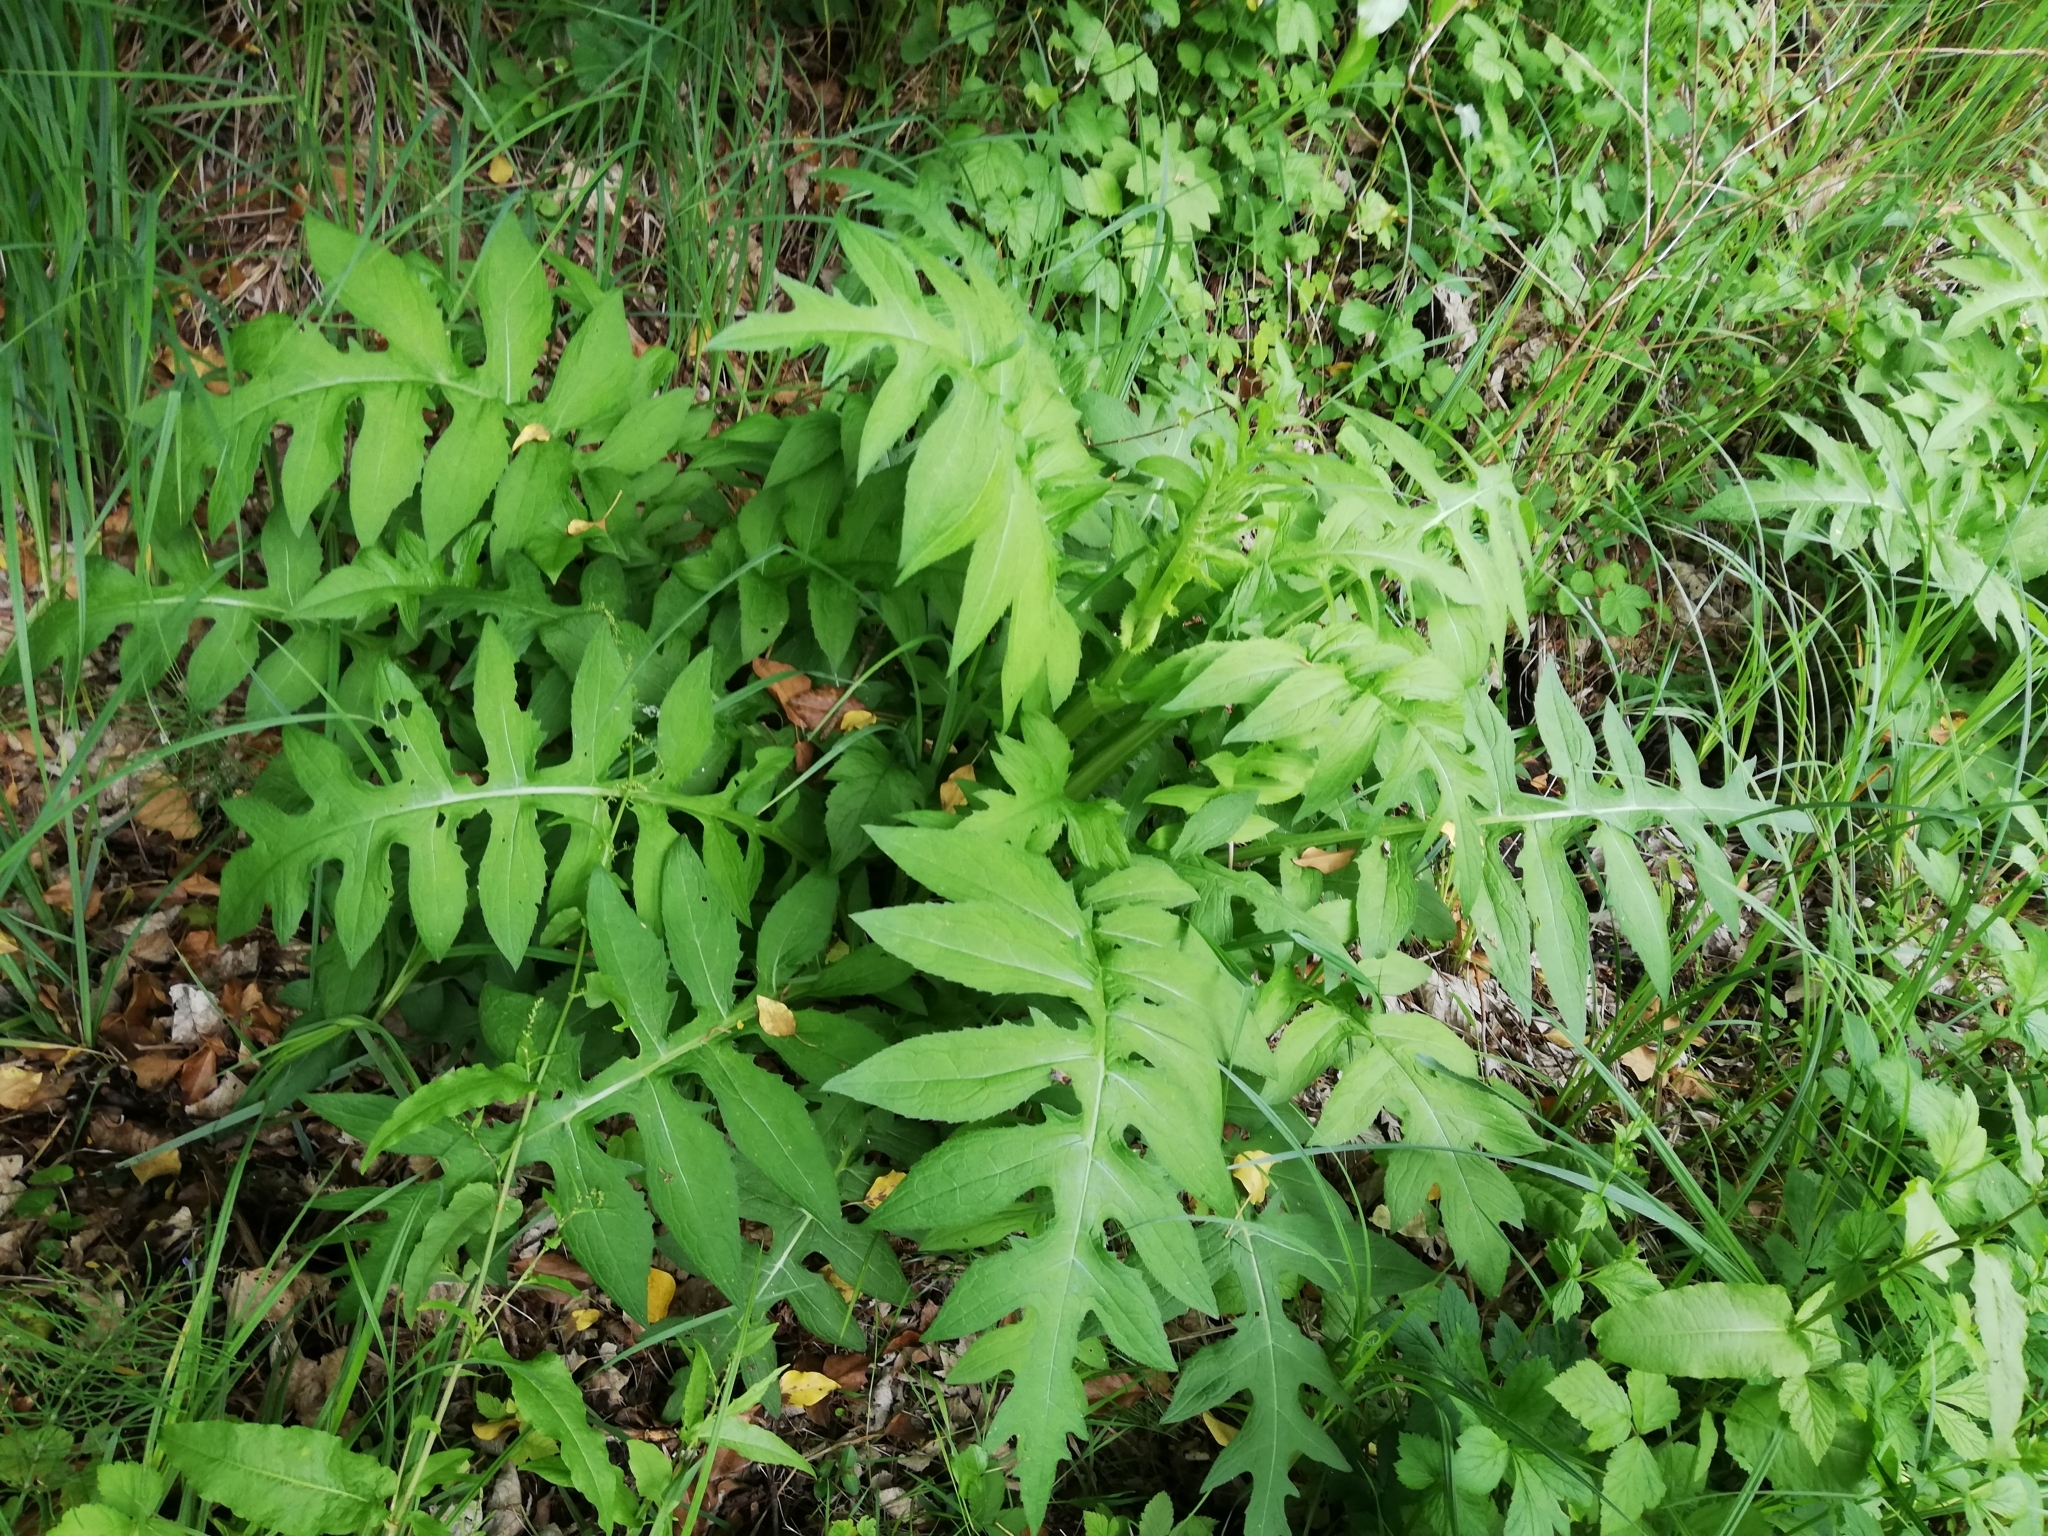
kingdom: Plantae
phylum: Tracheophyta
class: Magnoliopsida
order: Asterales
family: Asteraceae
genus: Cirsium
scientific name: Cirsium oleraceum
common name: Cabbage thistle
